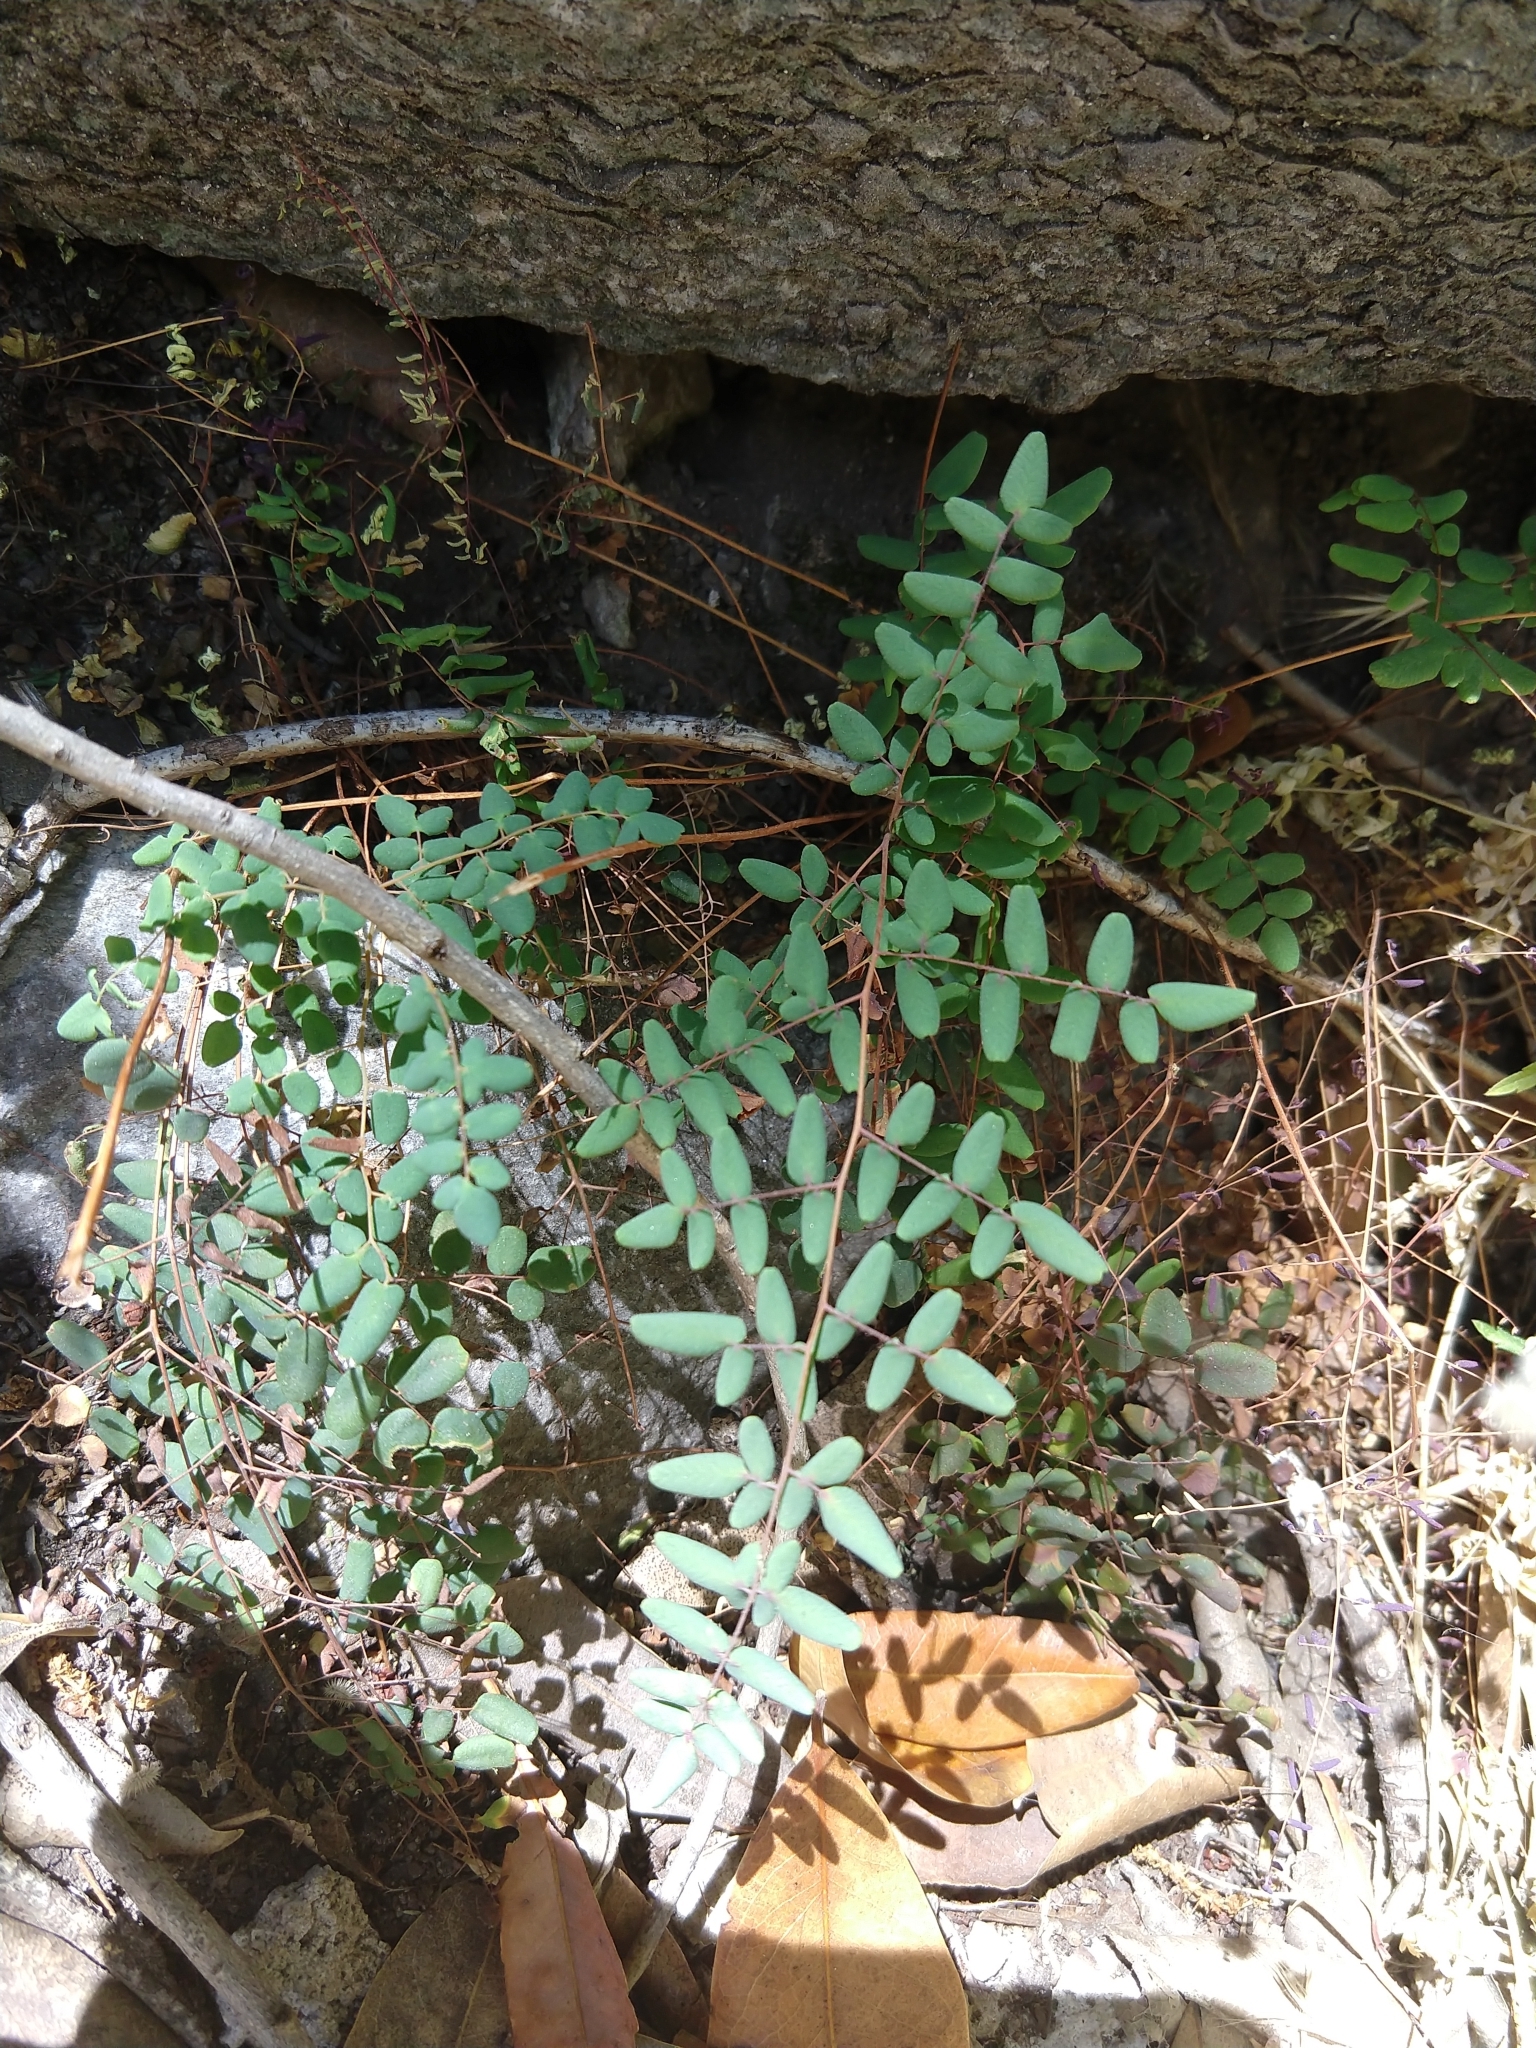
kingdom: Plantae
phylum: Tracheophyta
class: Polypodiopsida
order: Polypodiales
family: Pteridaceae
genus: Pellaea
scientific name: Pellaea andromedifolia
